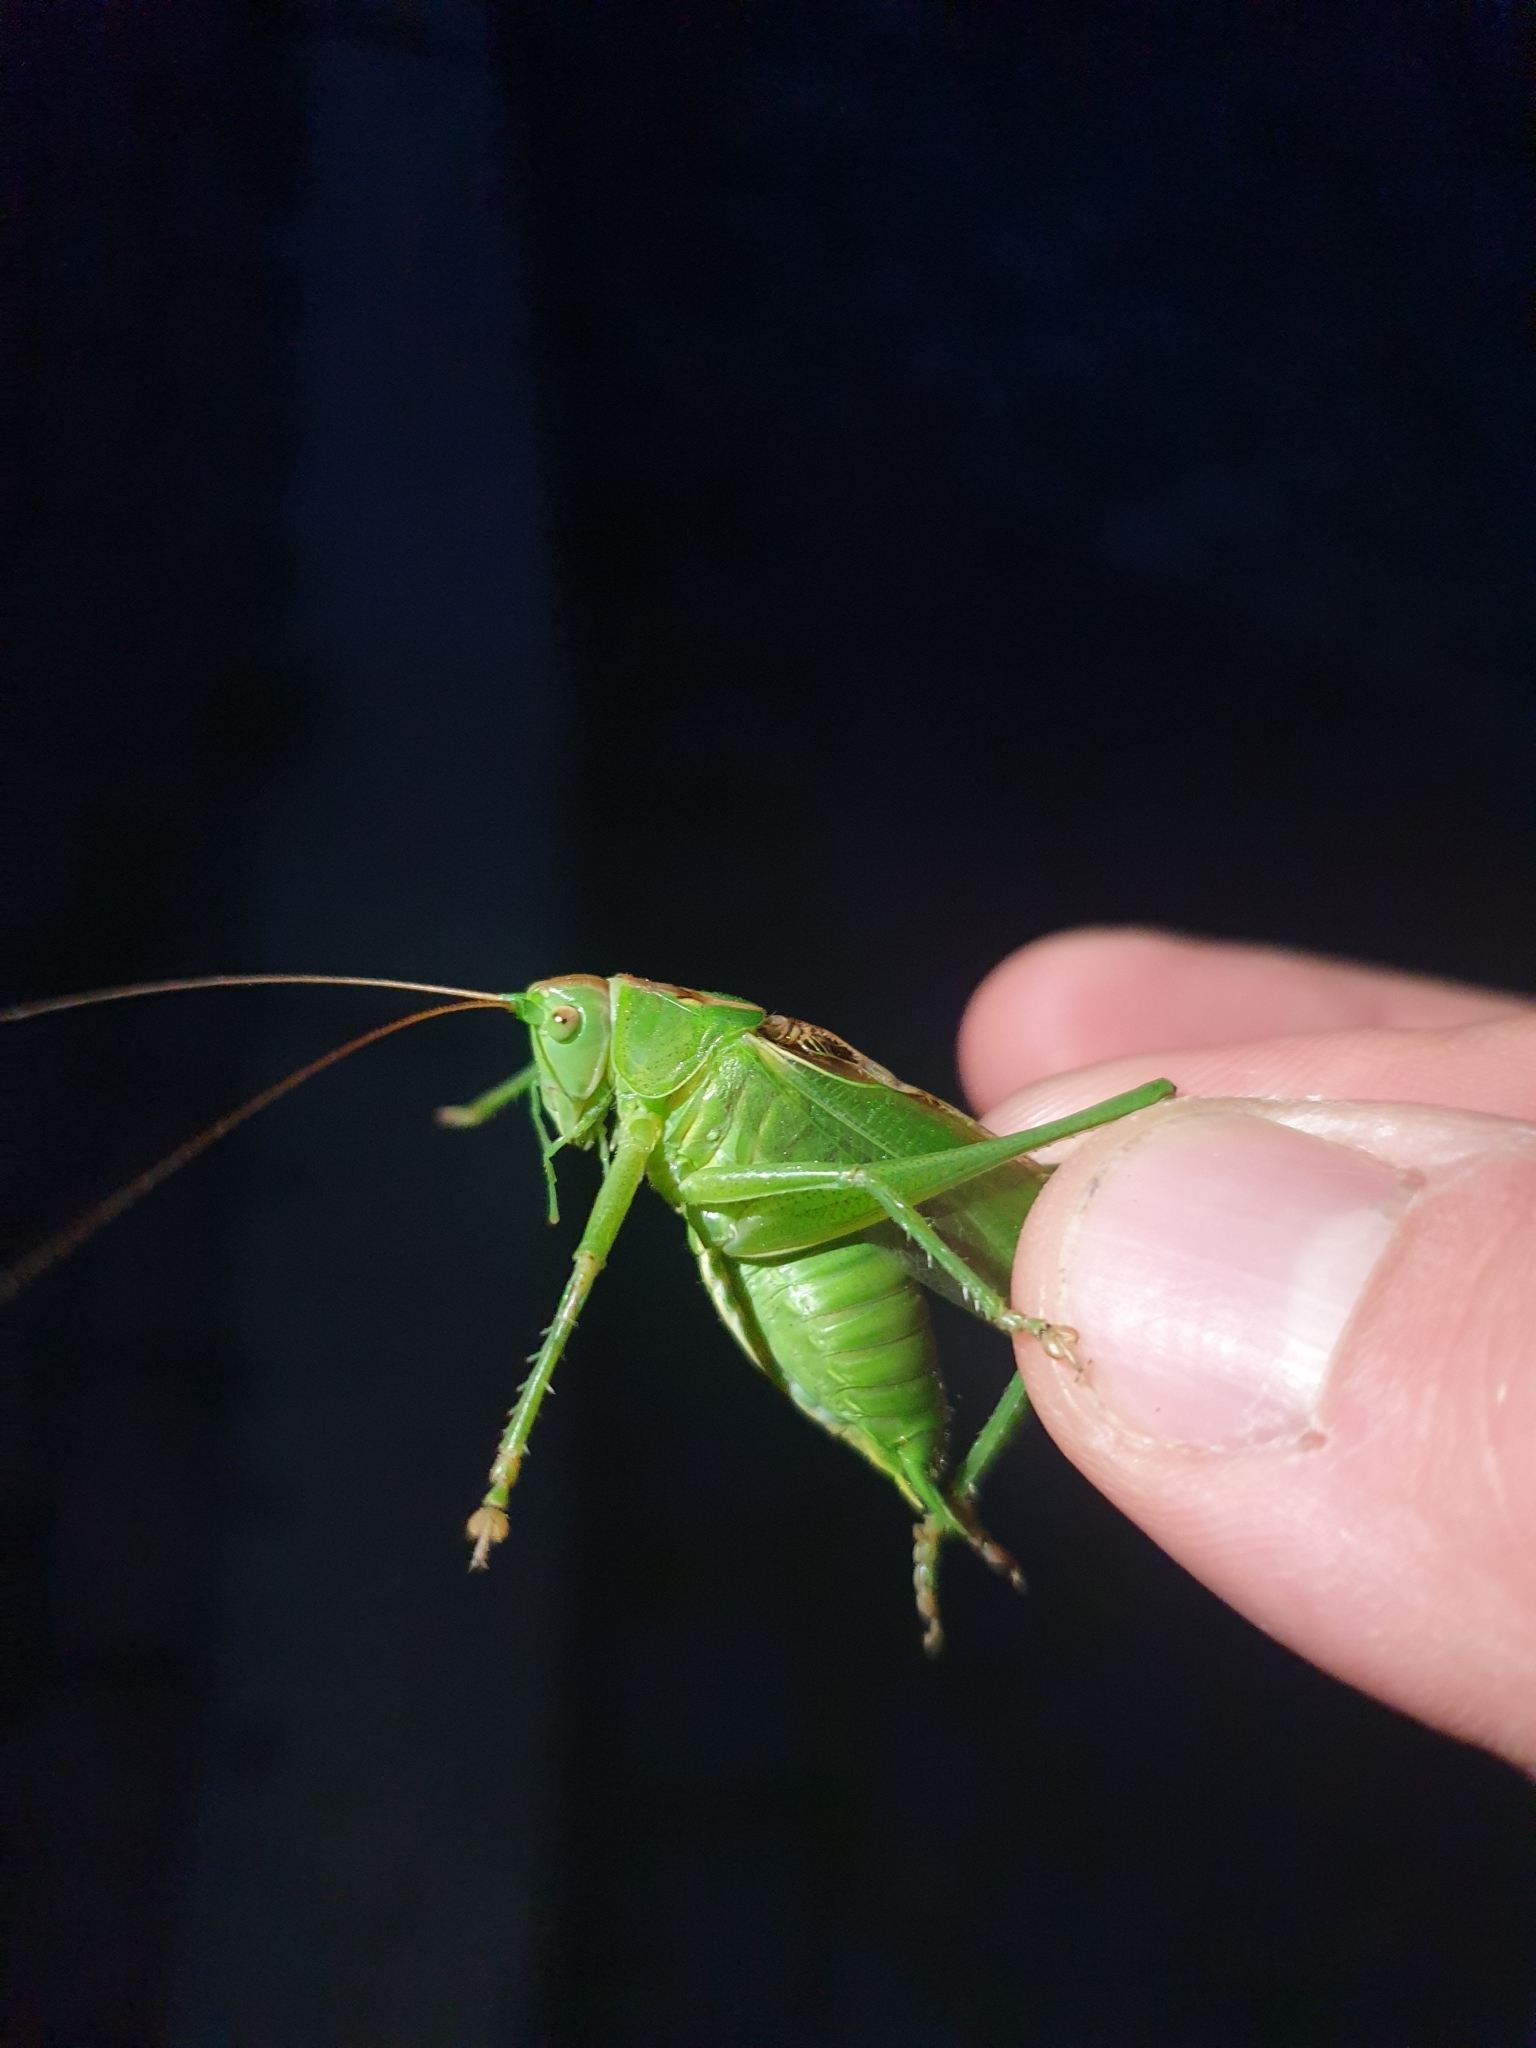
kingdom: Animalia
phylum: Arthropoda
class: Insecta
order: Orthoptera
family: Tettigoniidae
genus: Tettigonia
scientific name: Tettigonia viridissima
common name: Great green bush-cricket
